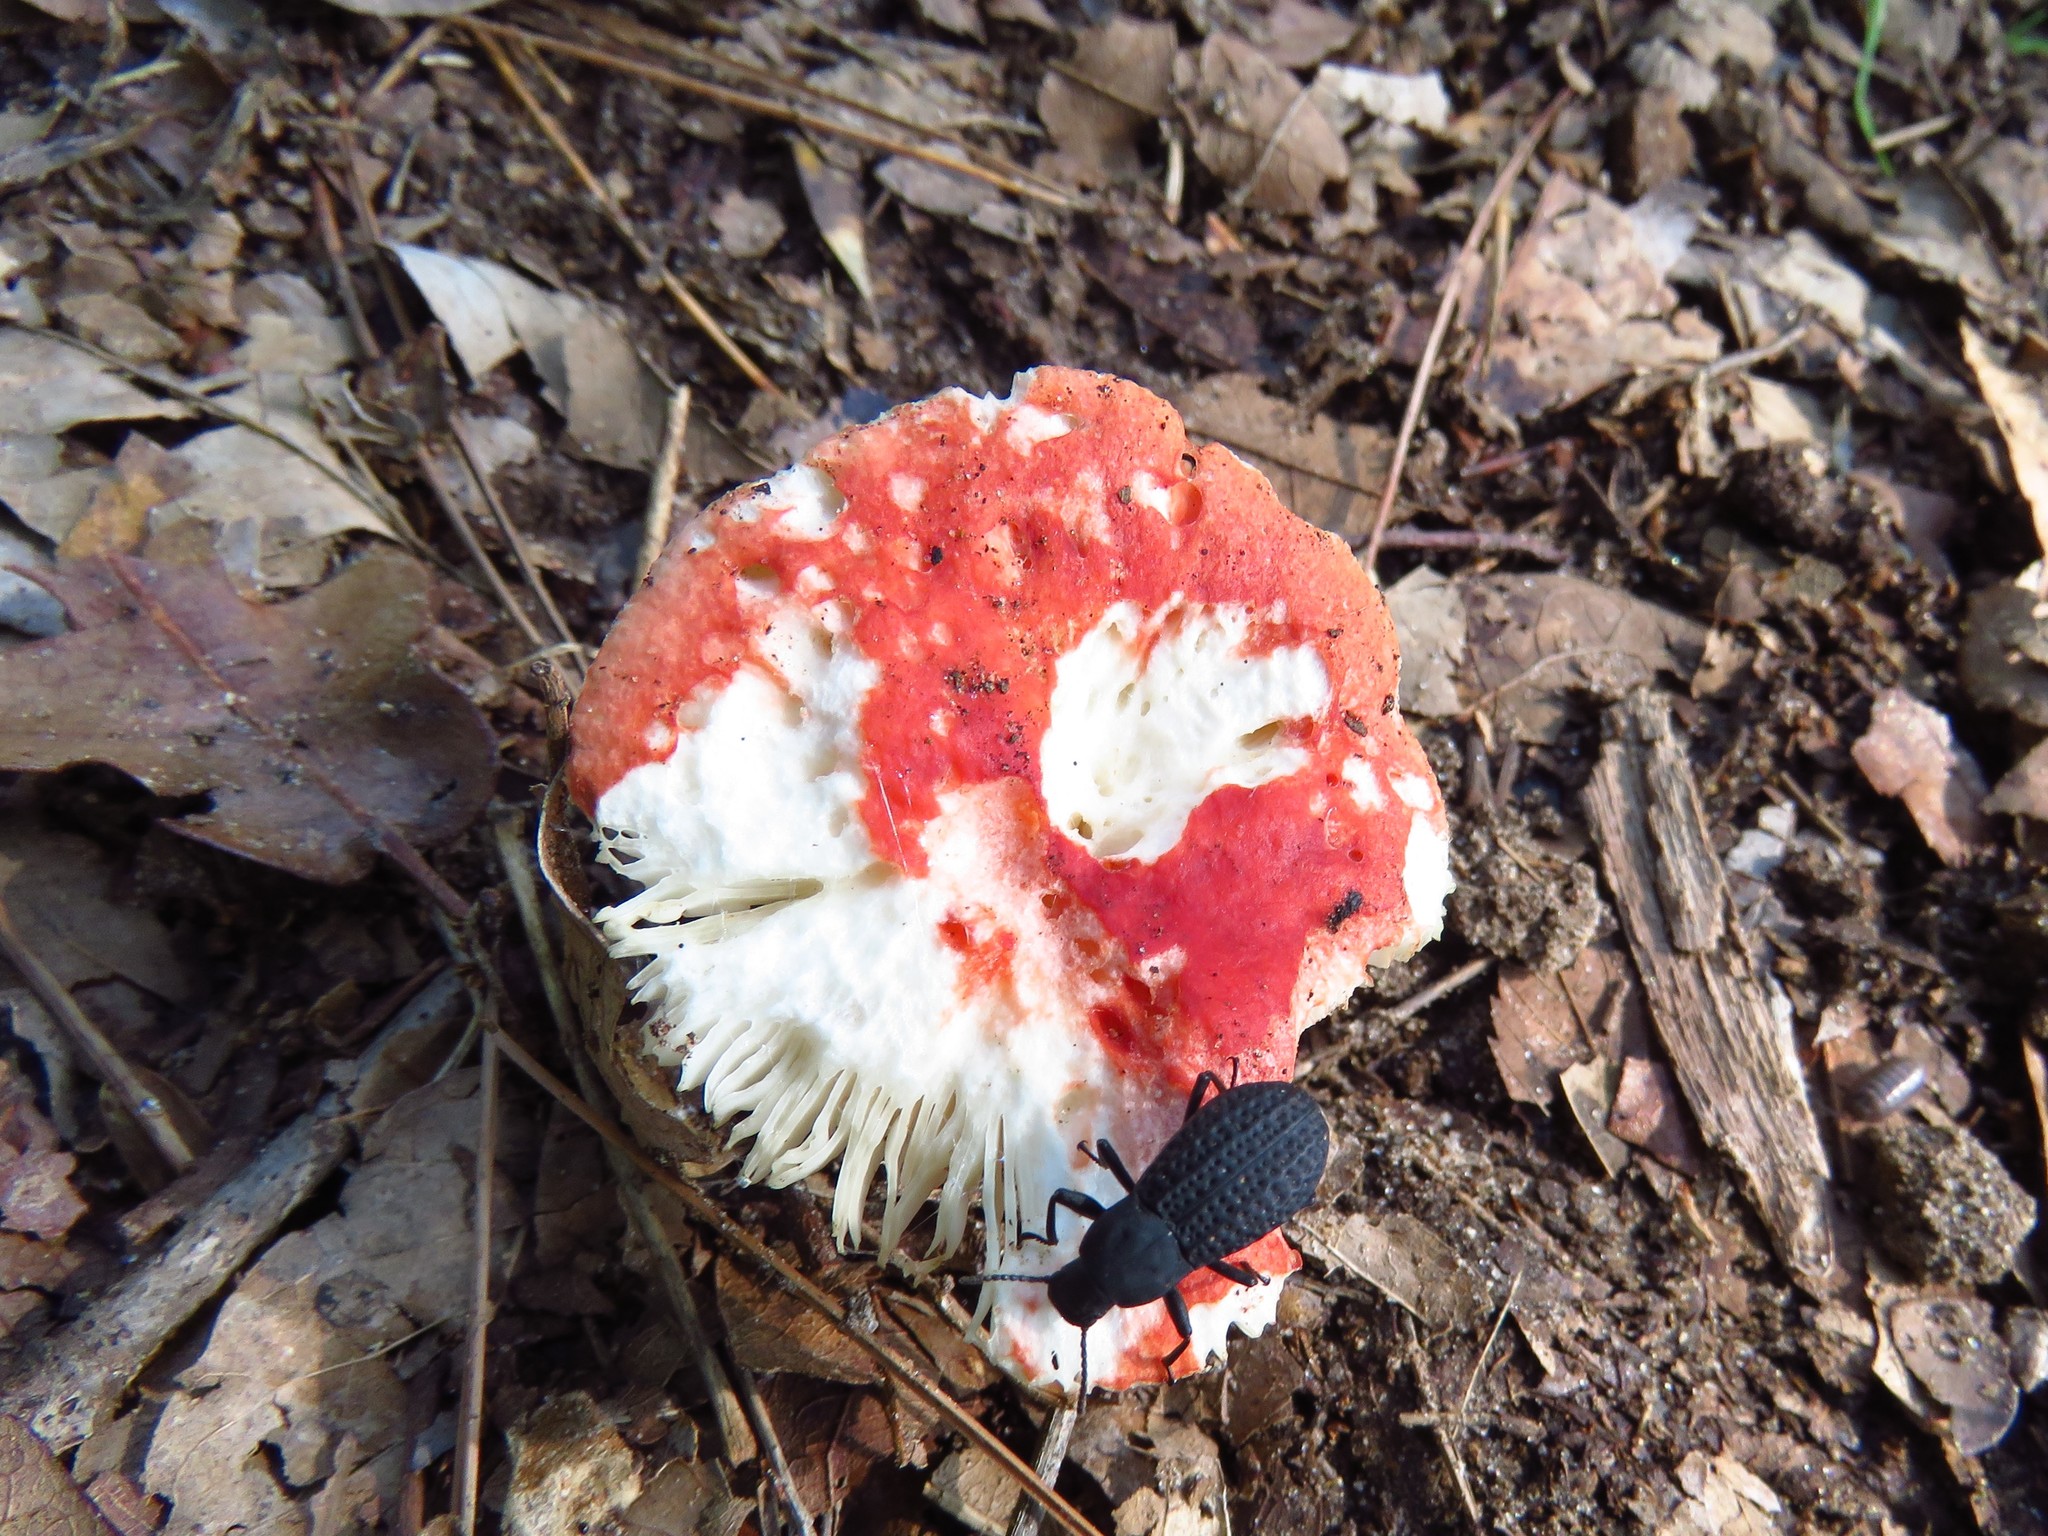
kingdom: Fungi
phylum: Basidiomycota
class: Agaricomycetes
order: Russulales
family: Russulaceae
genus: Russula
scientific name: Russula
